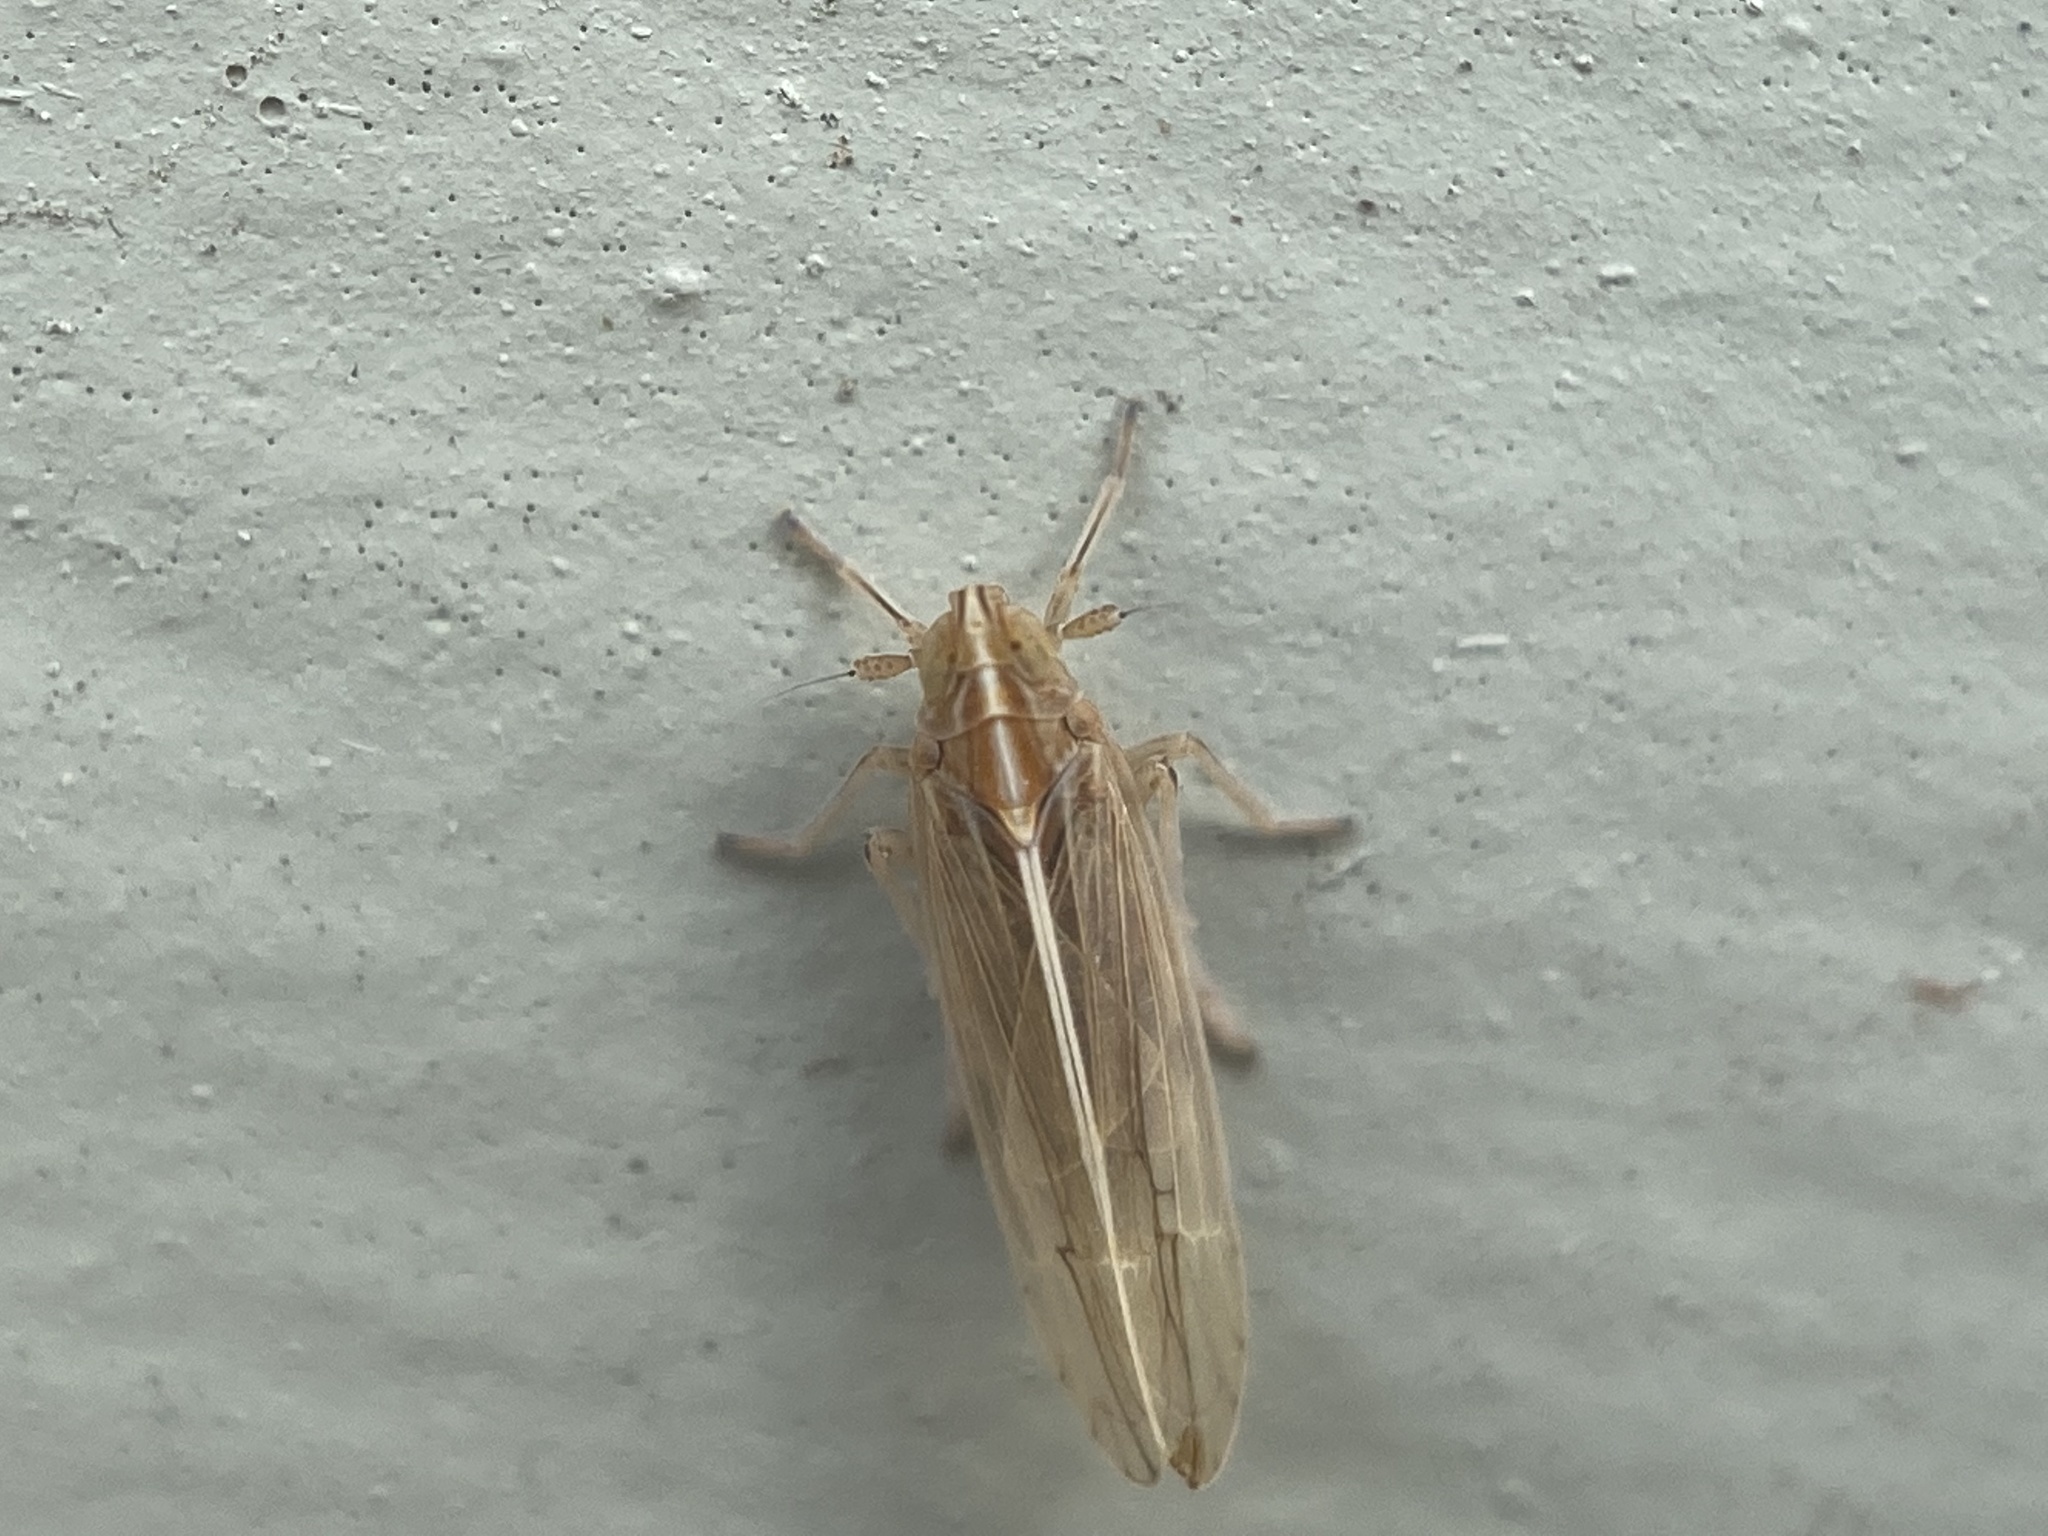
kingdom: Animalia
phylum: Arthropoda
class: Insecta
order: Hemiptera
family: Delphacidae
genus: Stenocranus
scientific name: Stenocranus dorsalis
